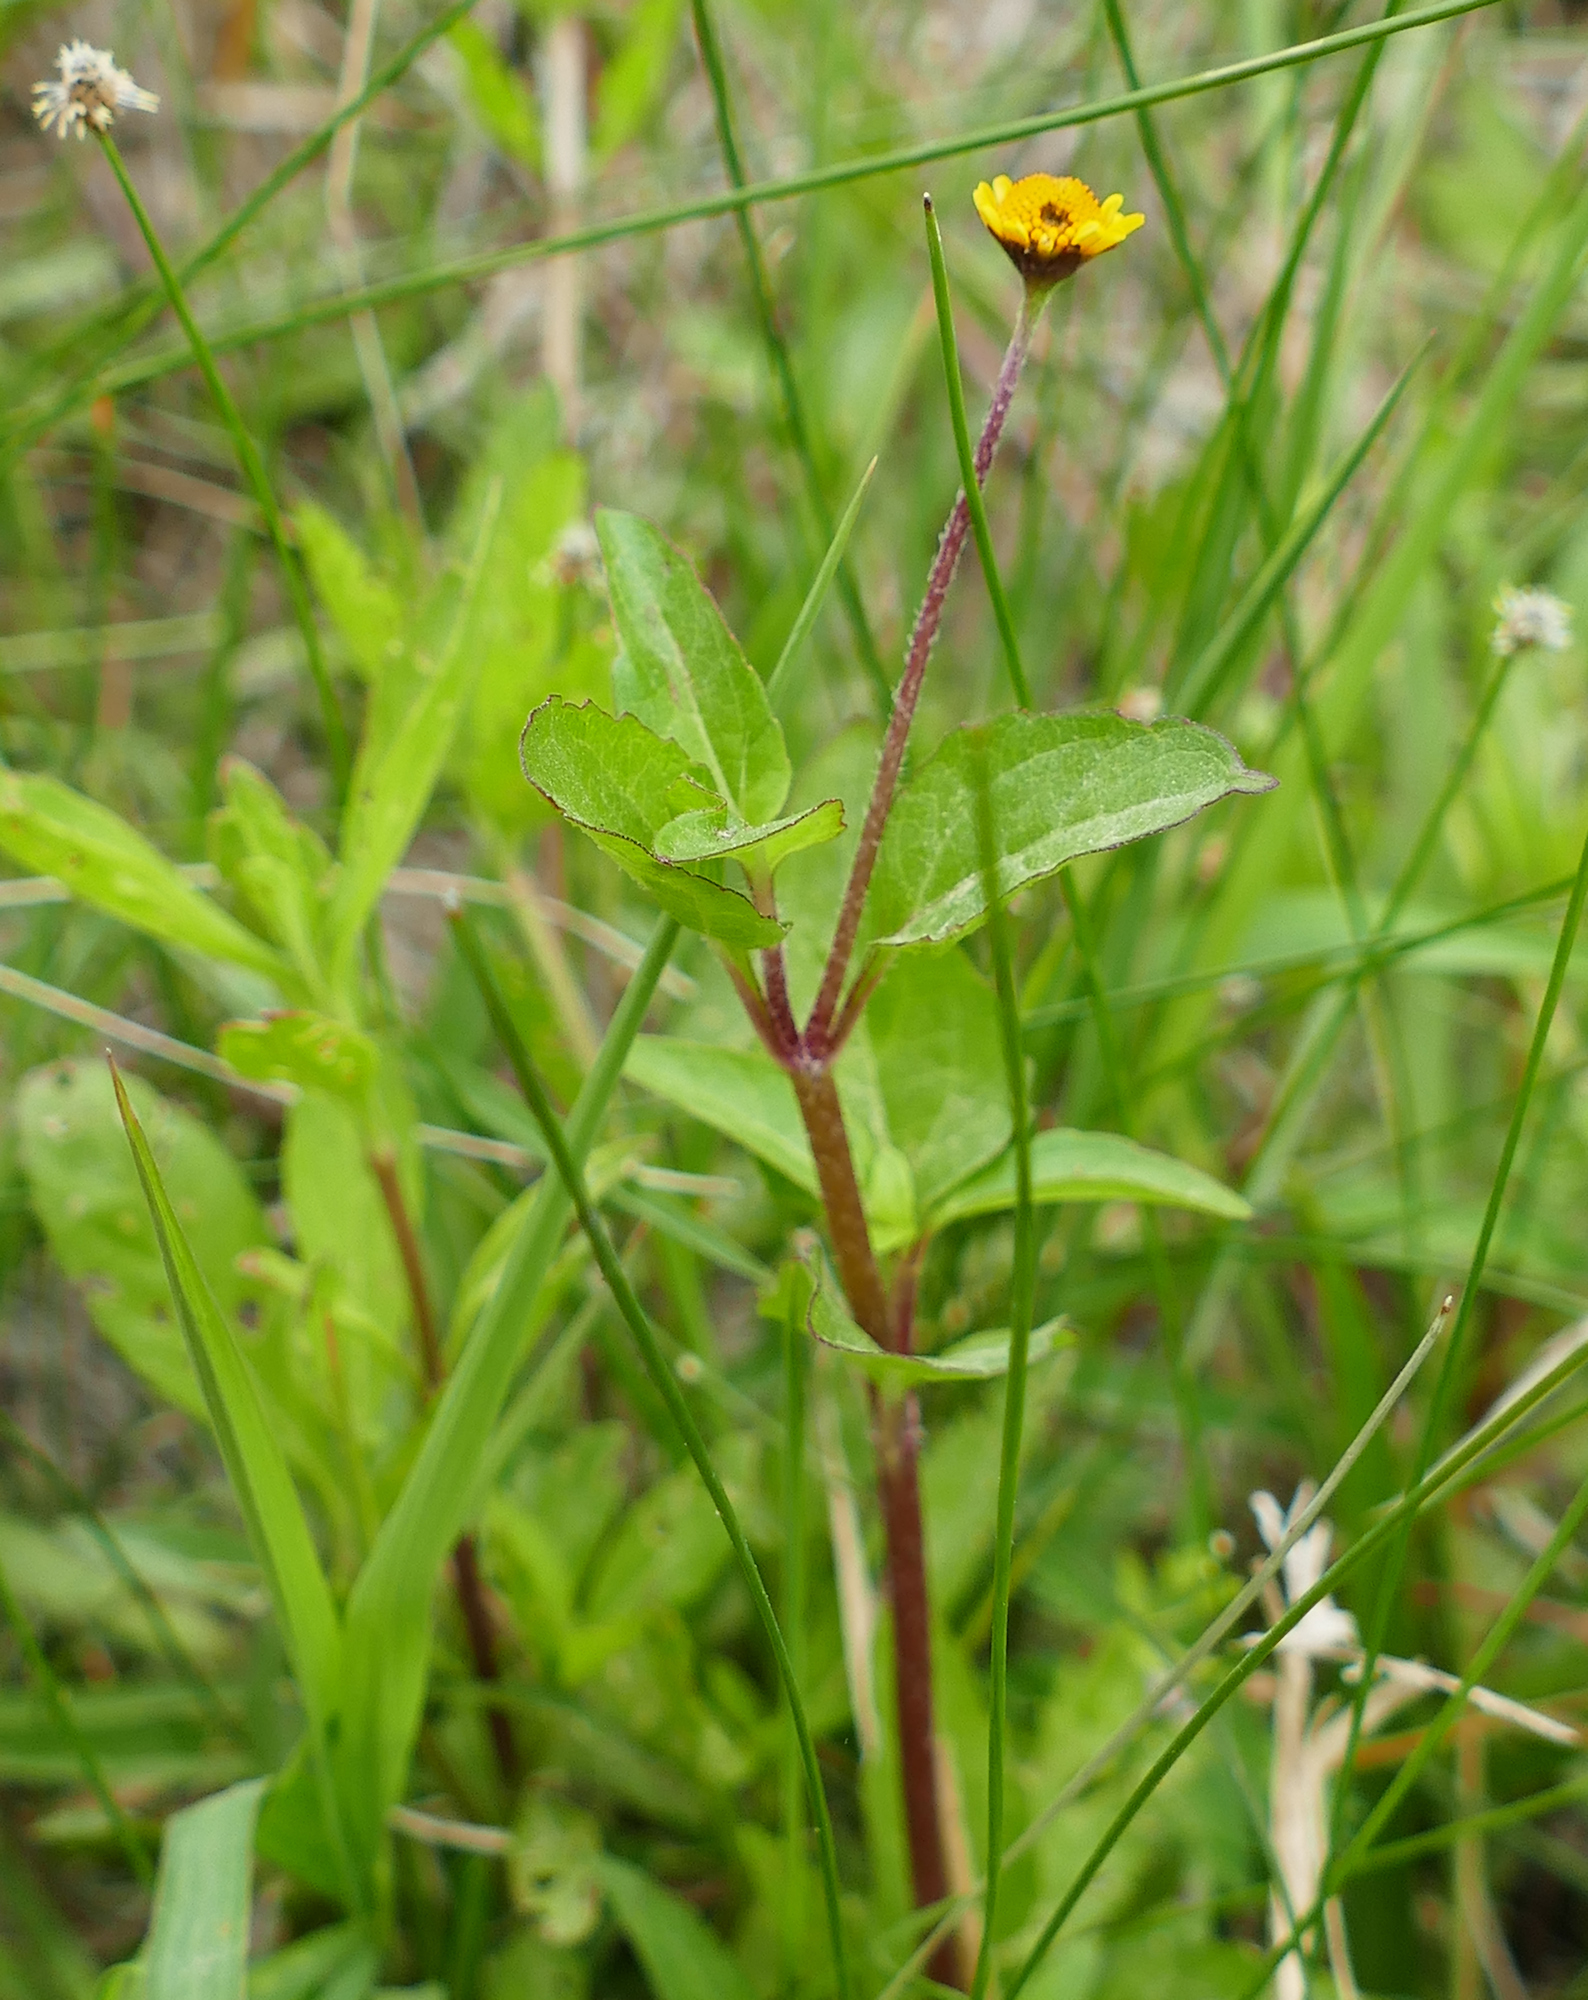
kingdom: Plantae
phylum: Tracheophyta
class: Magnoliopsida
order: Asterales
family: Asteraceae
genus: Acmella
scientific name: Acmella repens
